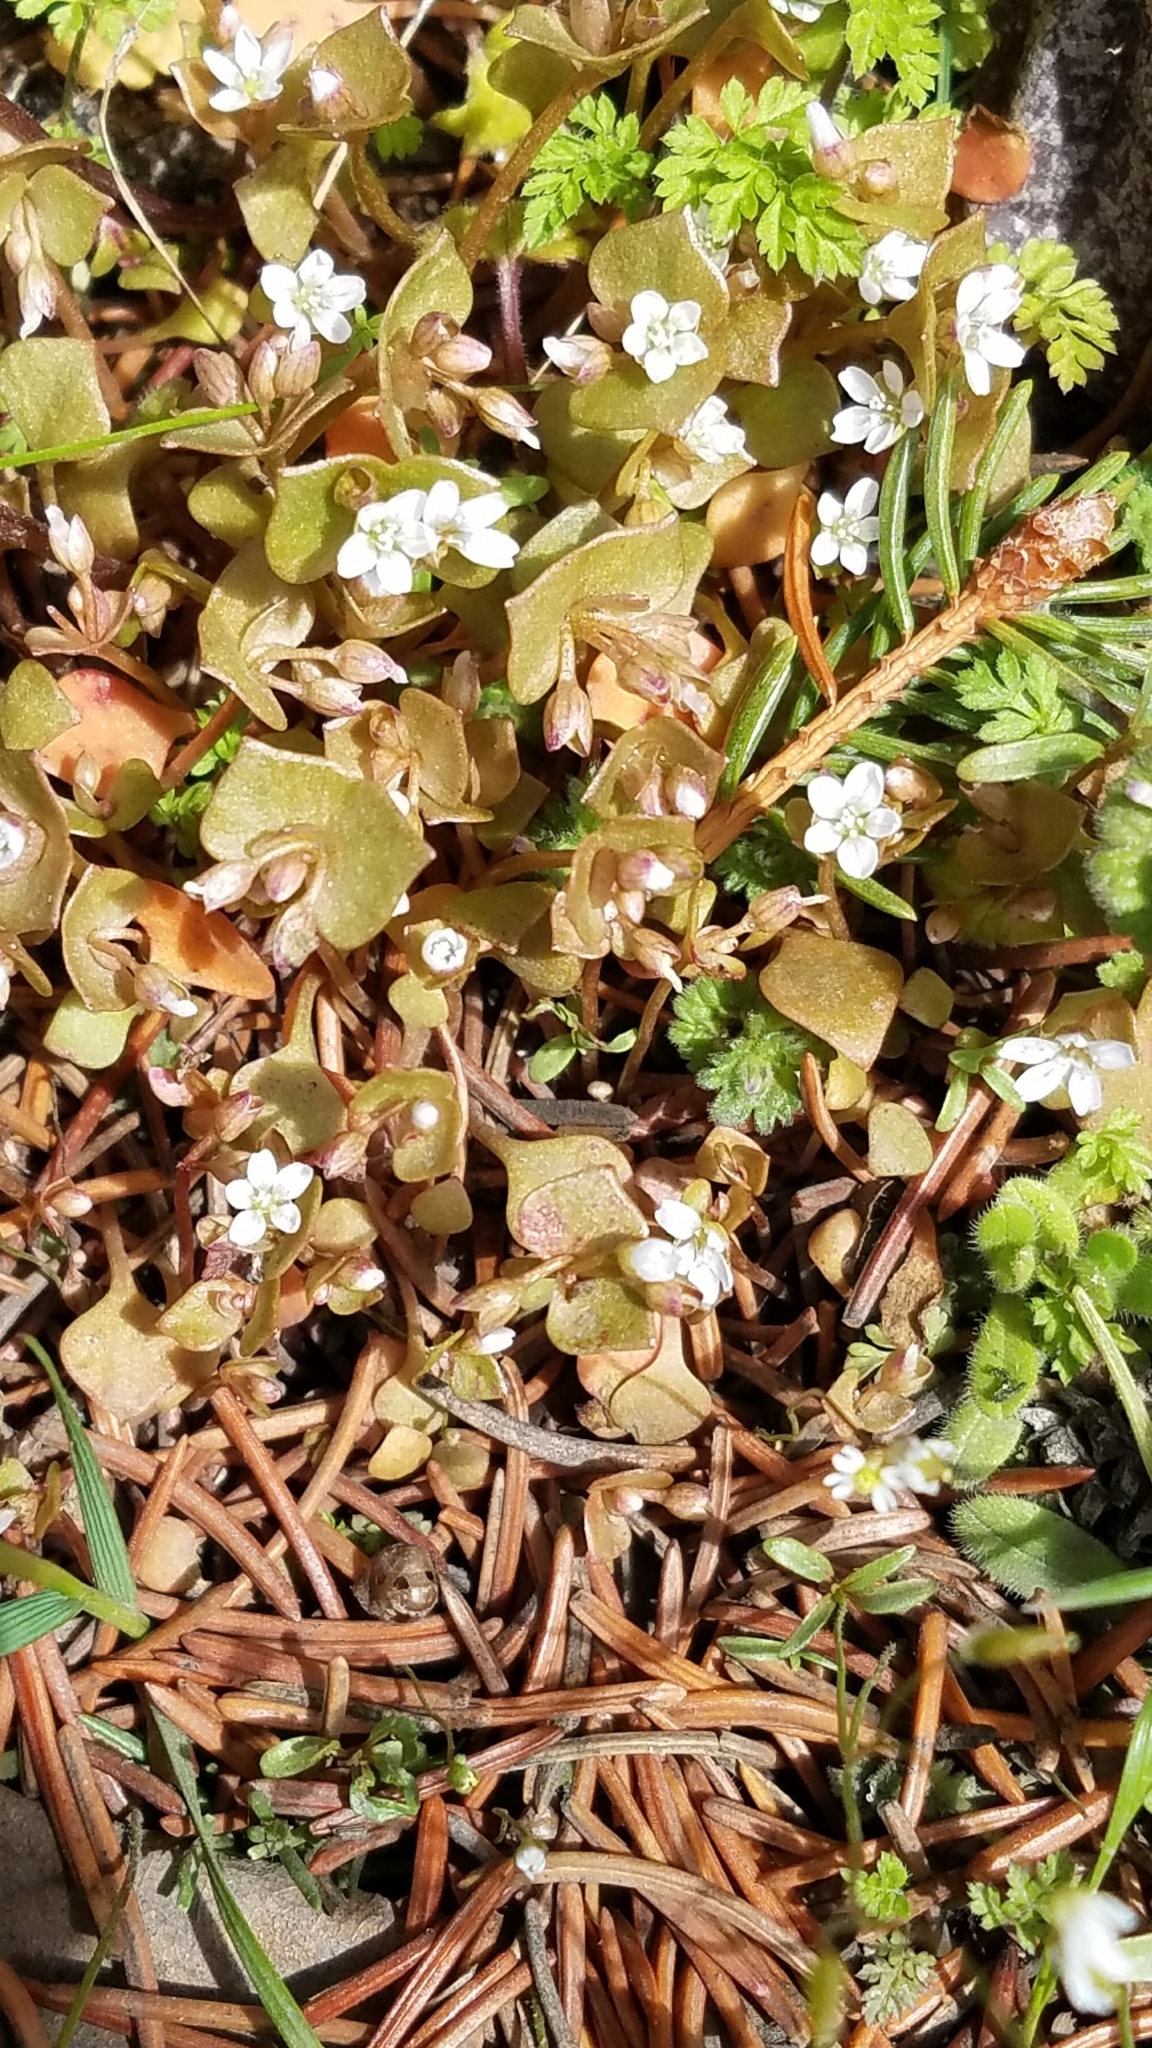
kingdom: Plantae
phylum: Tracheophyta
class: Magnoliopsida
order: Caryophyllales
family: Montiaceae
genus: Claytonia
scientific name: Claytonia rubra
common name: Erubescent miner's-lettuce
